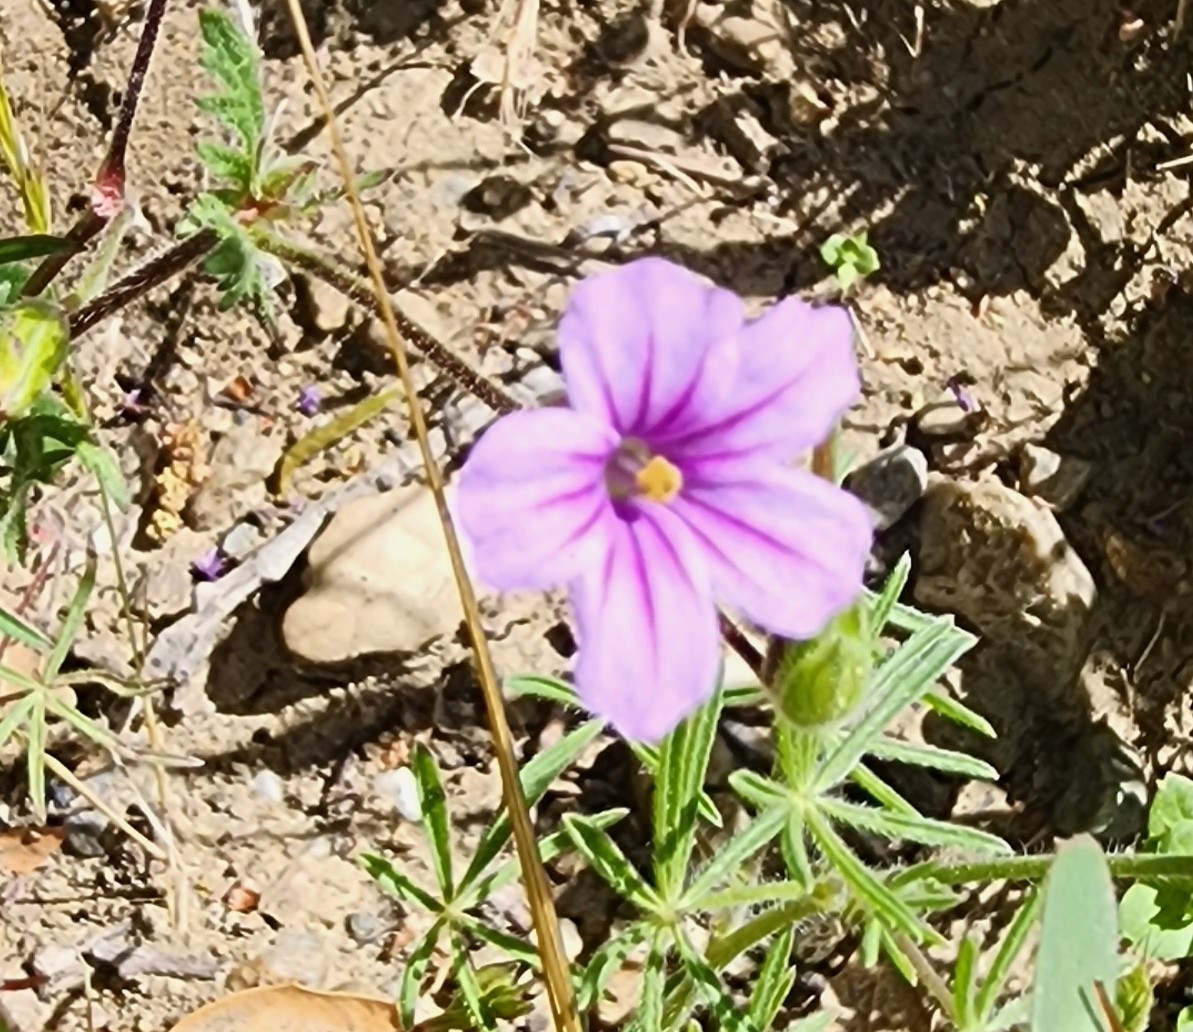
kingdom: Plantae
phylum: Tracheophyta
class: Magnoliopsida
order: Geraniales
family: Geraniaceae
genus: Erodium
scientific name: Erodium botrys
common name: Mediterranean stork's-bill
